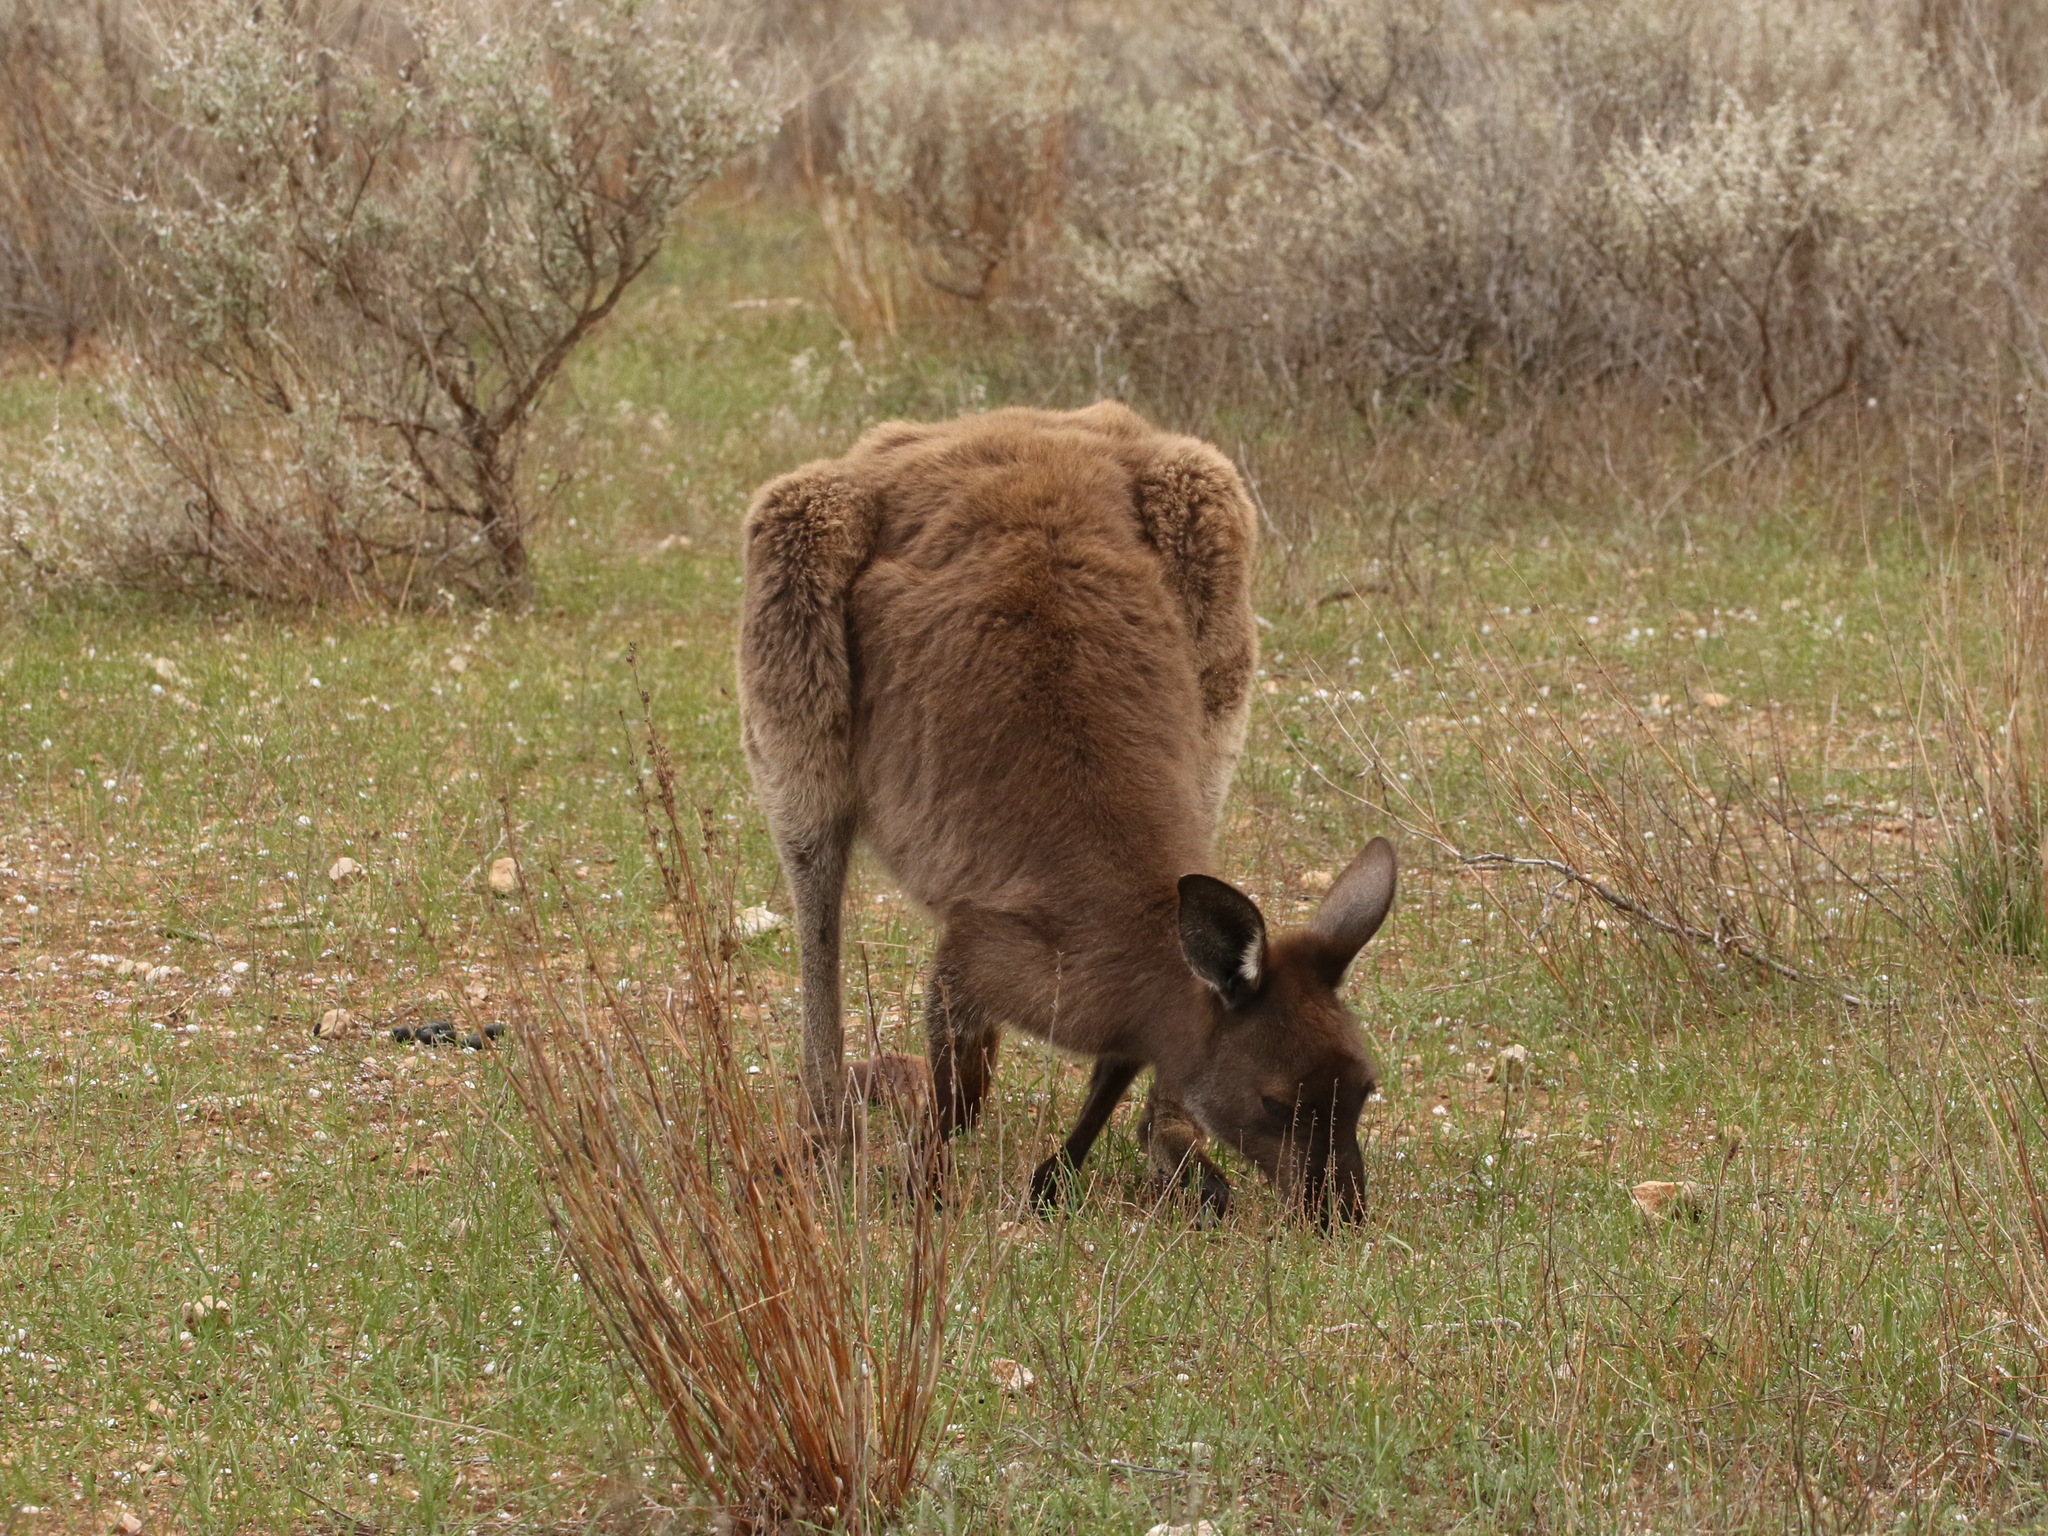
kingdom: Animalia
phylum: Chordata
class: Mammalia
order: Diprotodontia
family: Macropodidae
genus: Macropus
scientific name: Macropus fuliginosus
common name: Western grey kangaroo
